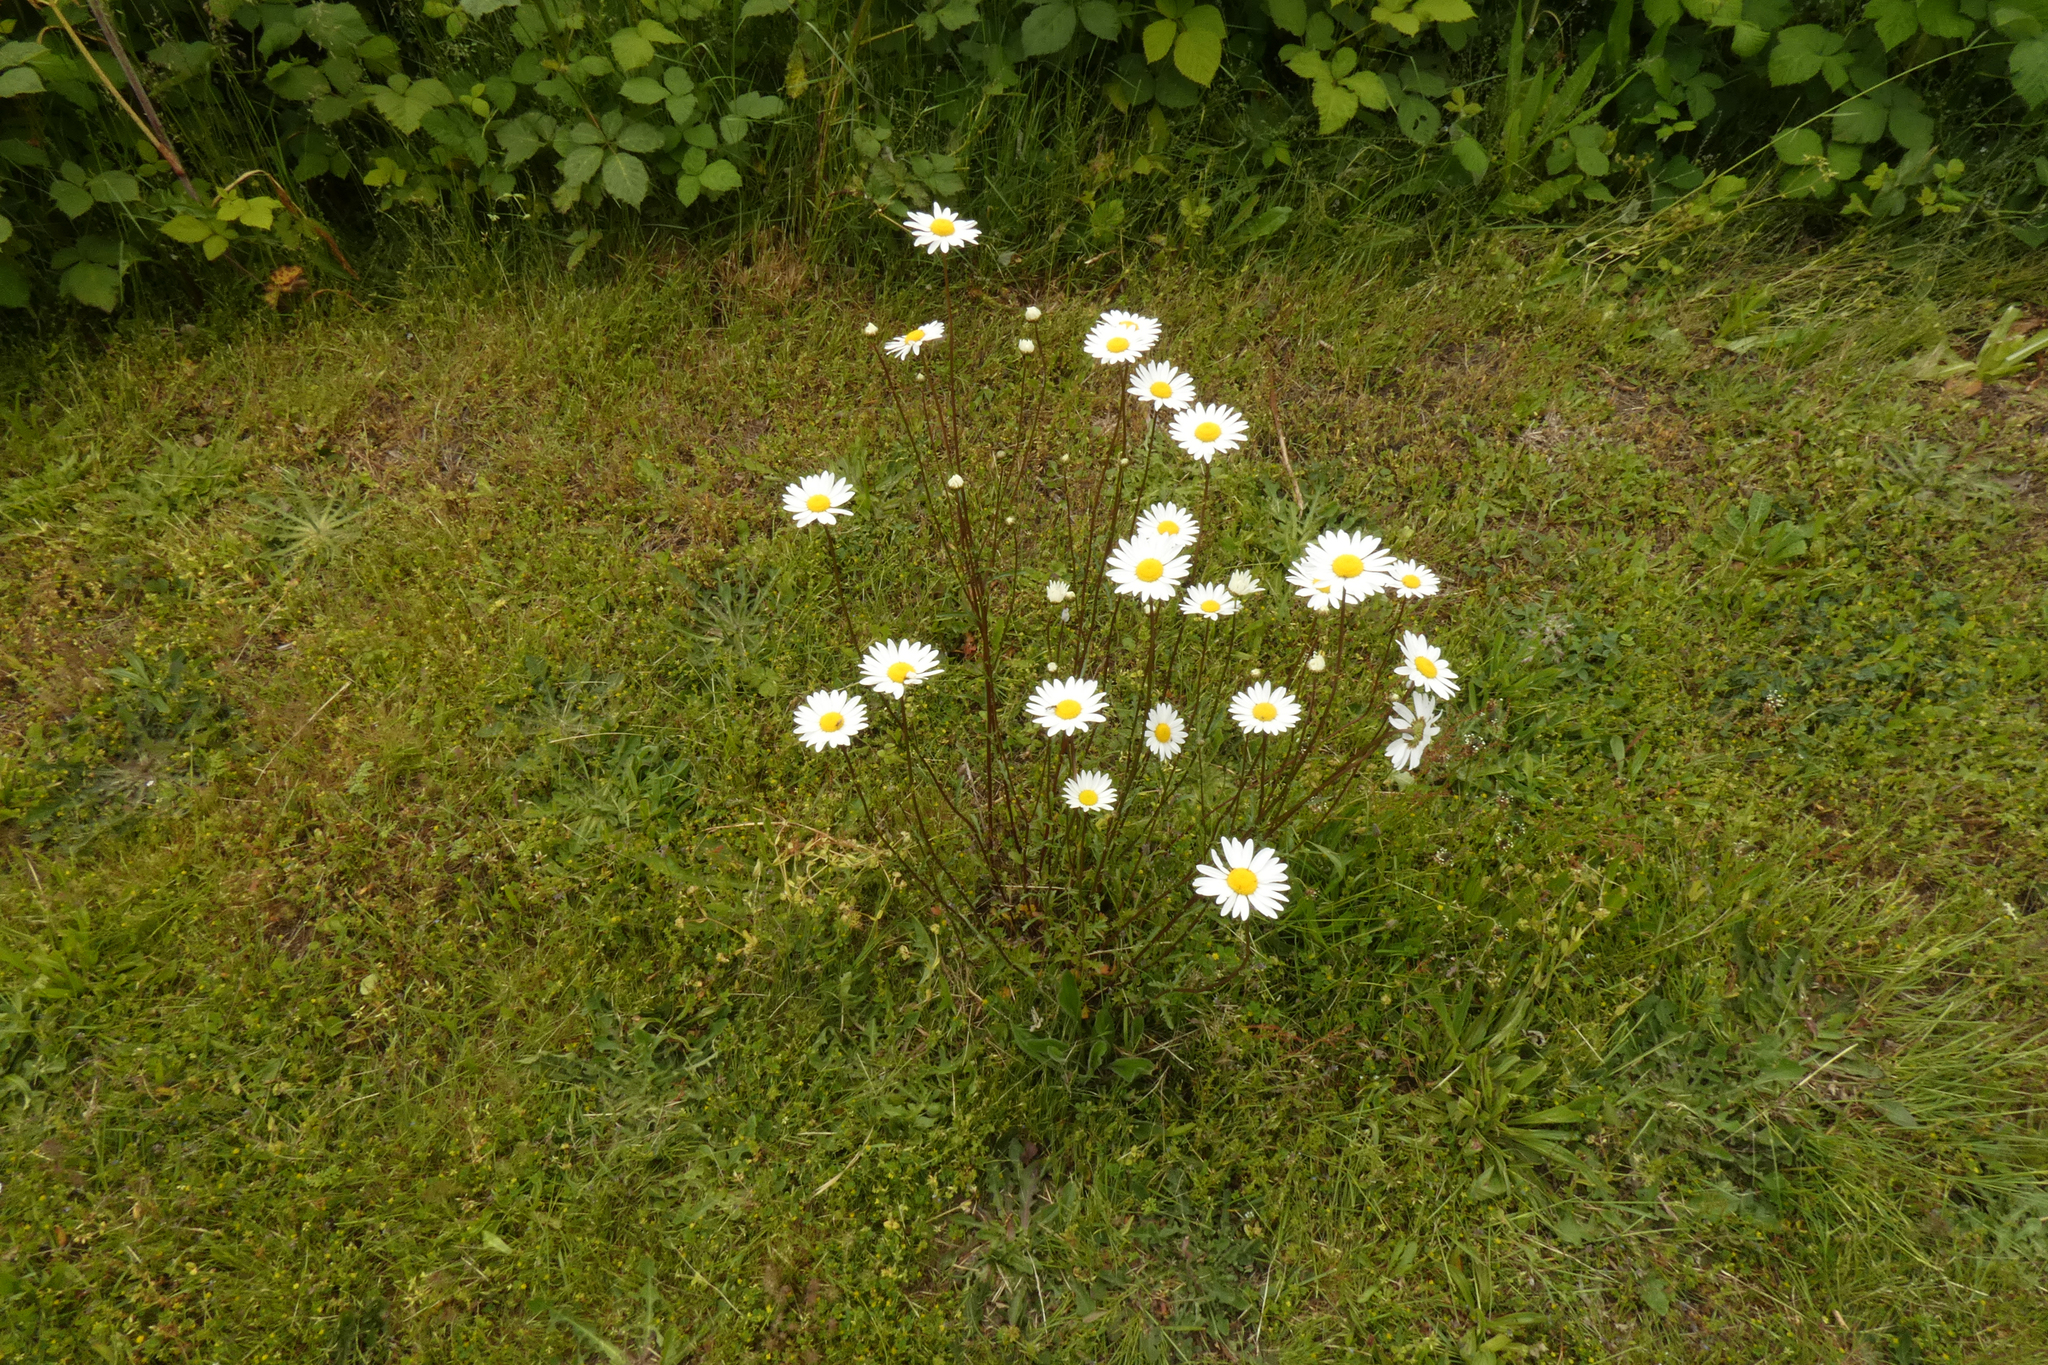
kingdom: Plantae
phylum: Tracheophyta
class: Magnoliopsida
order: Asterales
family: Asteraceae
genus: Leucanthemum
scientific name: Leucanthemum vulgare
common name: Oxeye daisy
